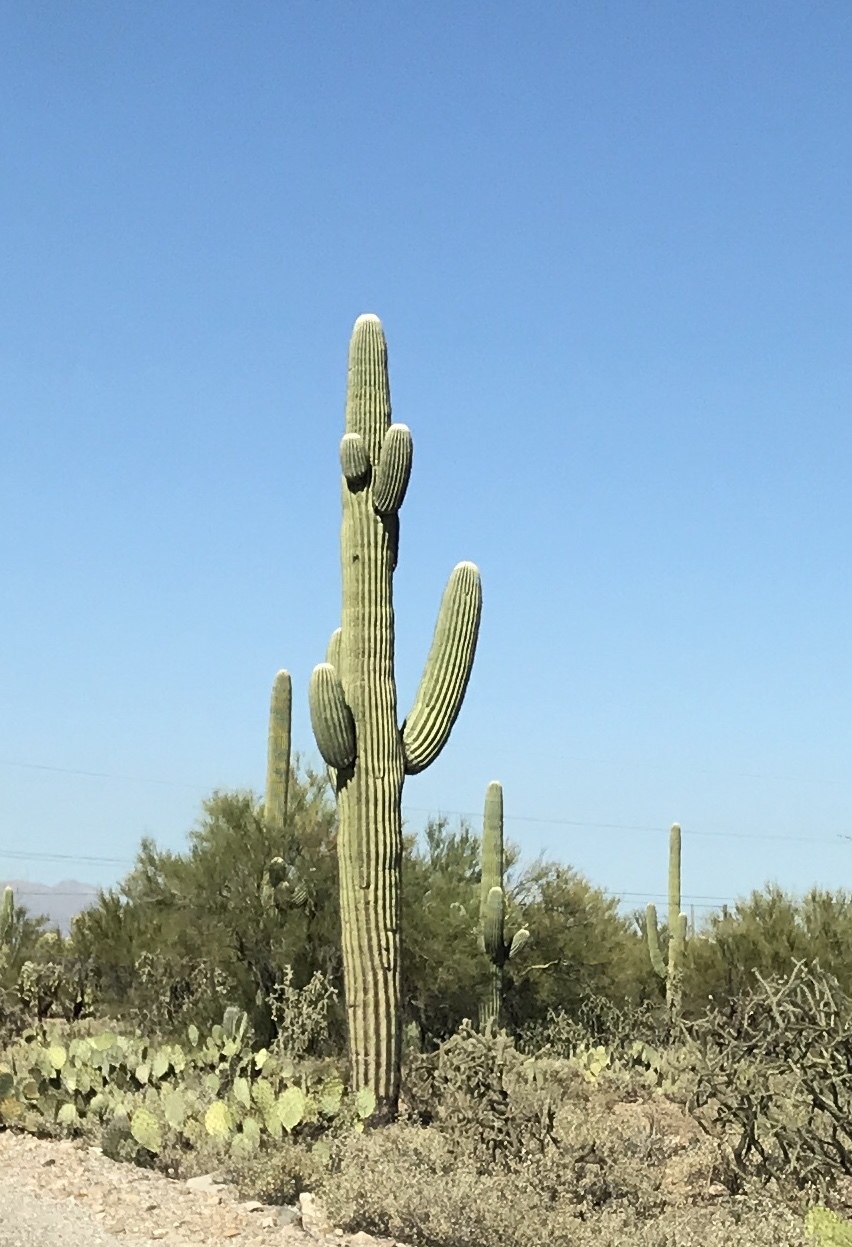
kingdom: Plantae
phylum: Tracheophyta
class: Magnoliopsida
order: Caryophyllales
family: Cactaceae
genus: Carnegiea
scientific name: Carnegiea gigantea
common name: Saguaro
